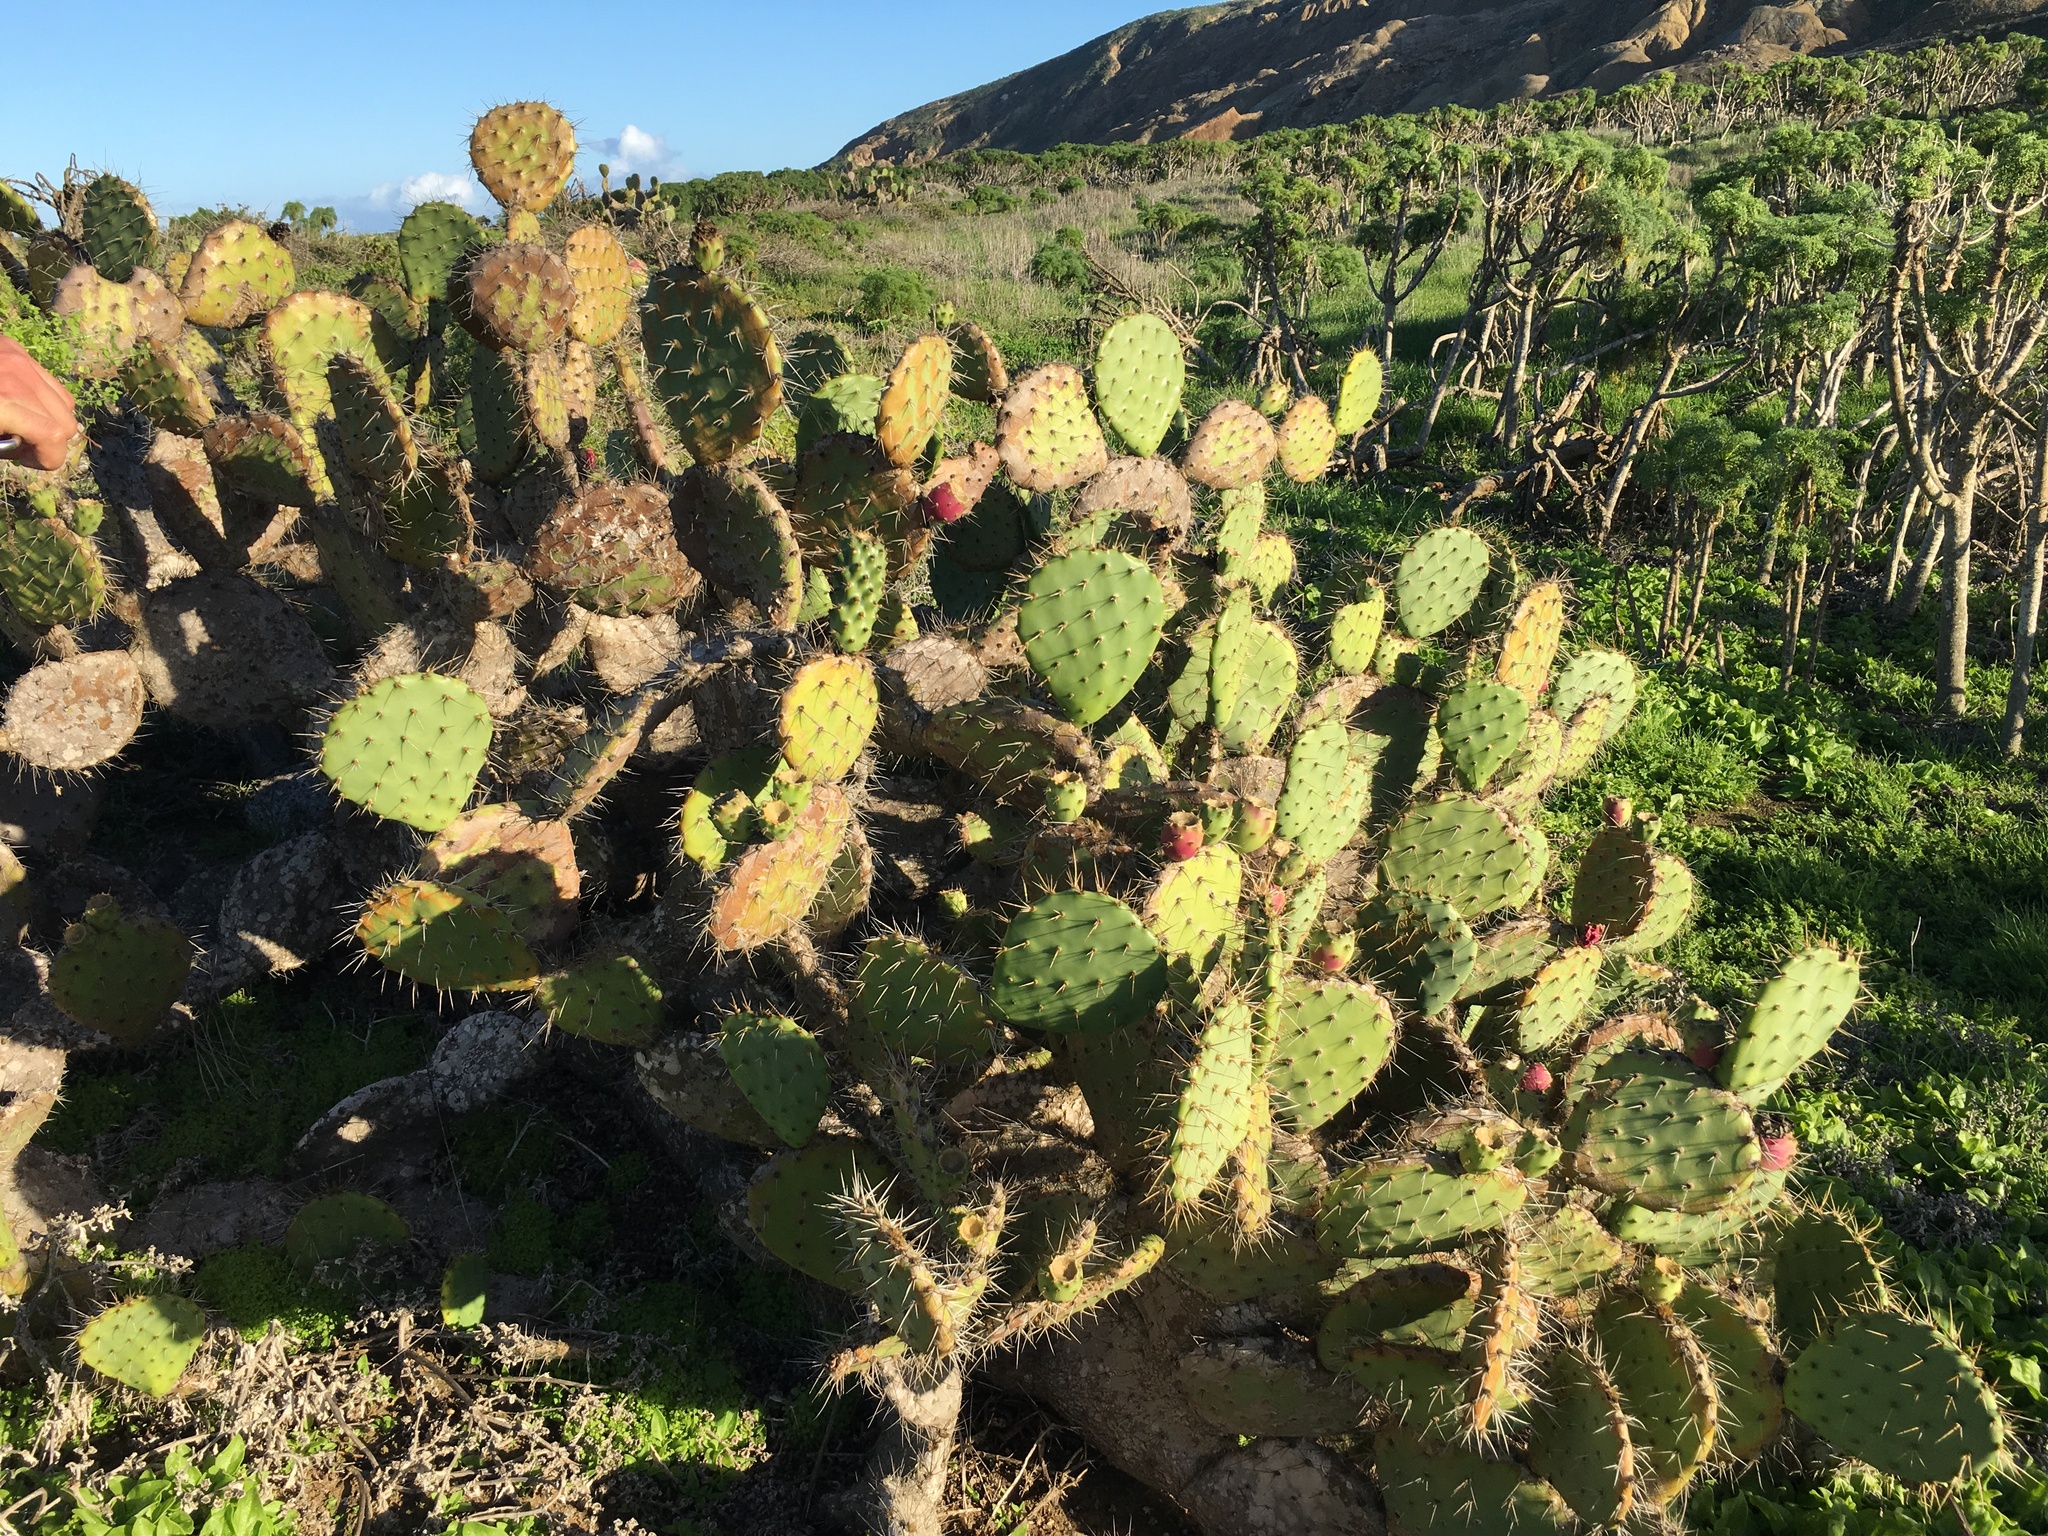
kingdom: Plantae
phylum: Tracheophyta
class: Magnoliopsida
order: Asterales
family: Asteraceae
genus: Coreopsis
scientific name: Coreopsis gigantea
